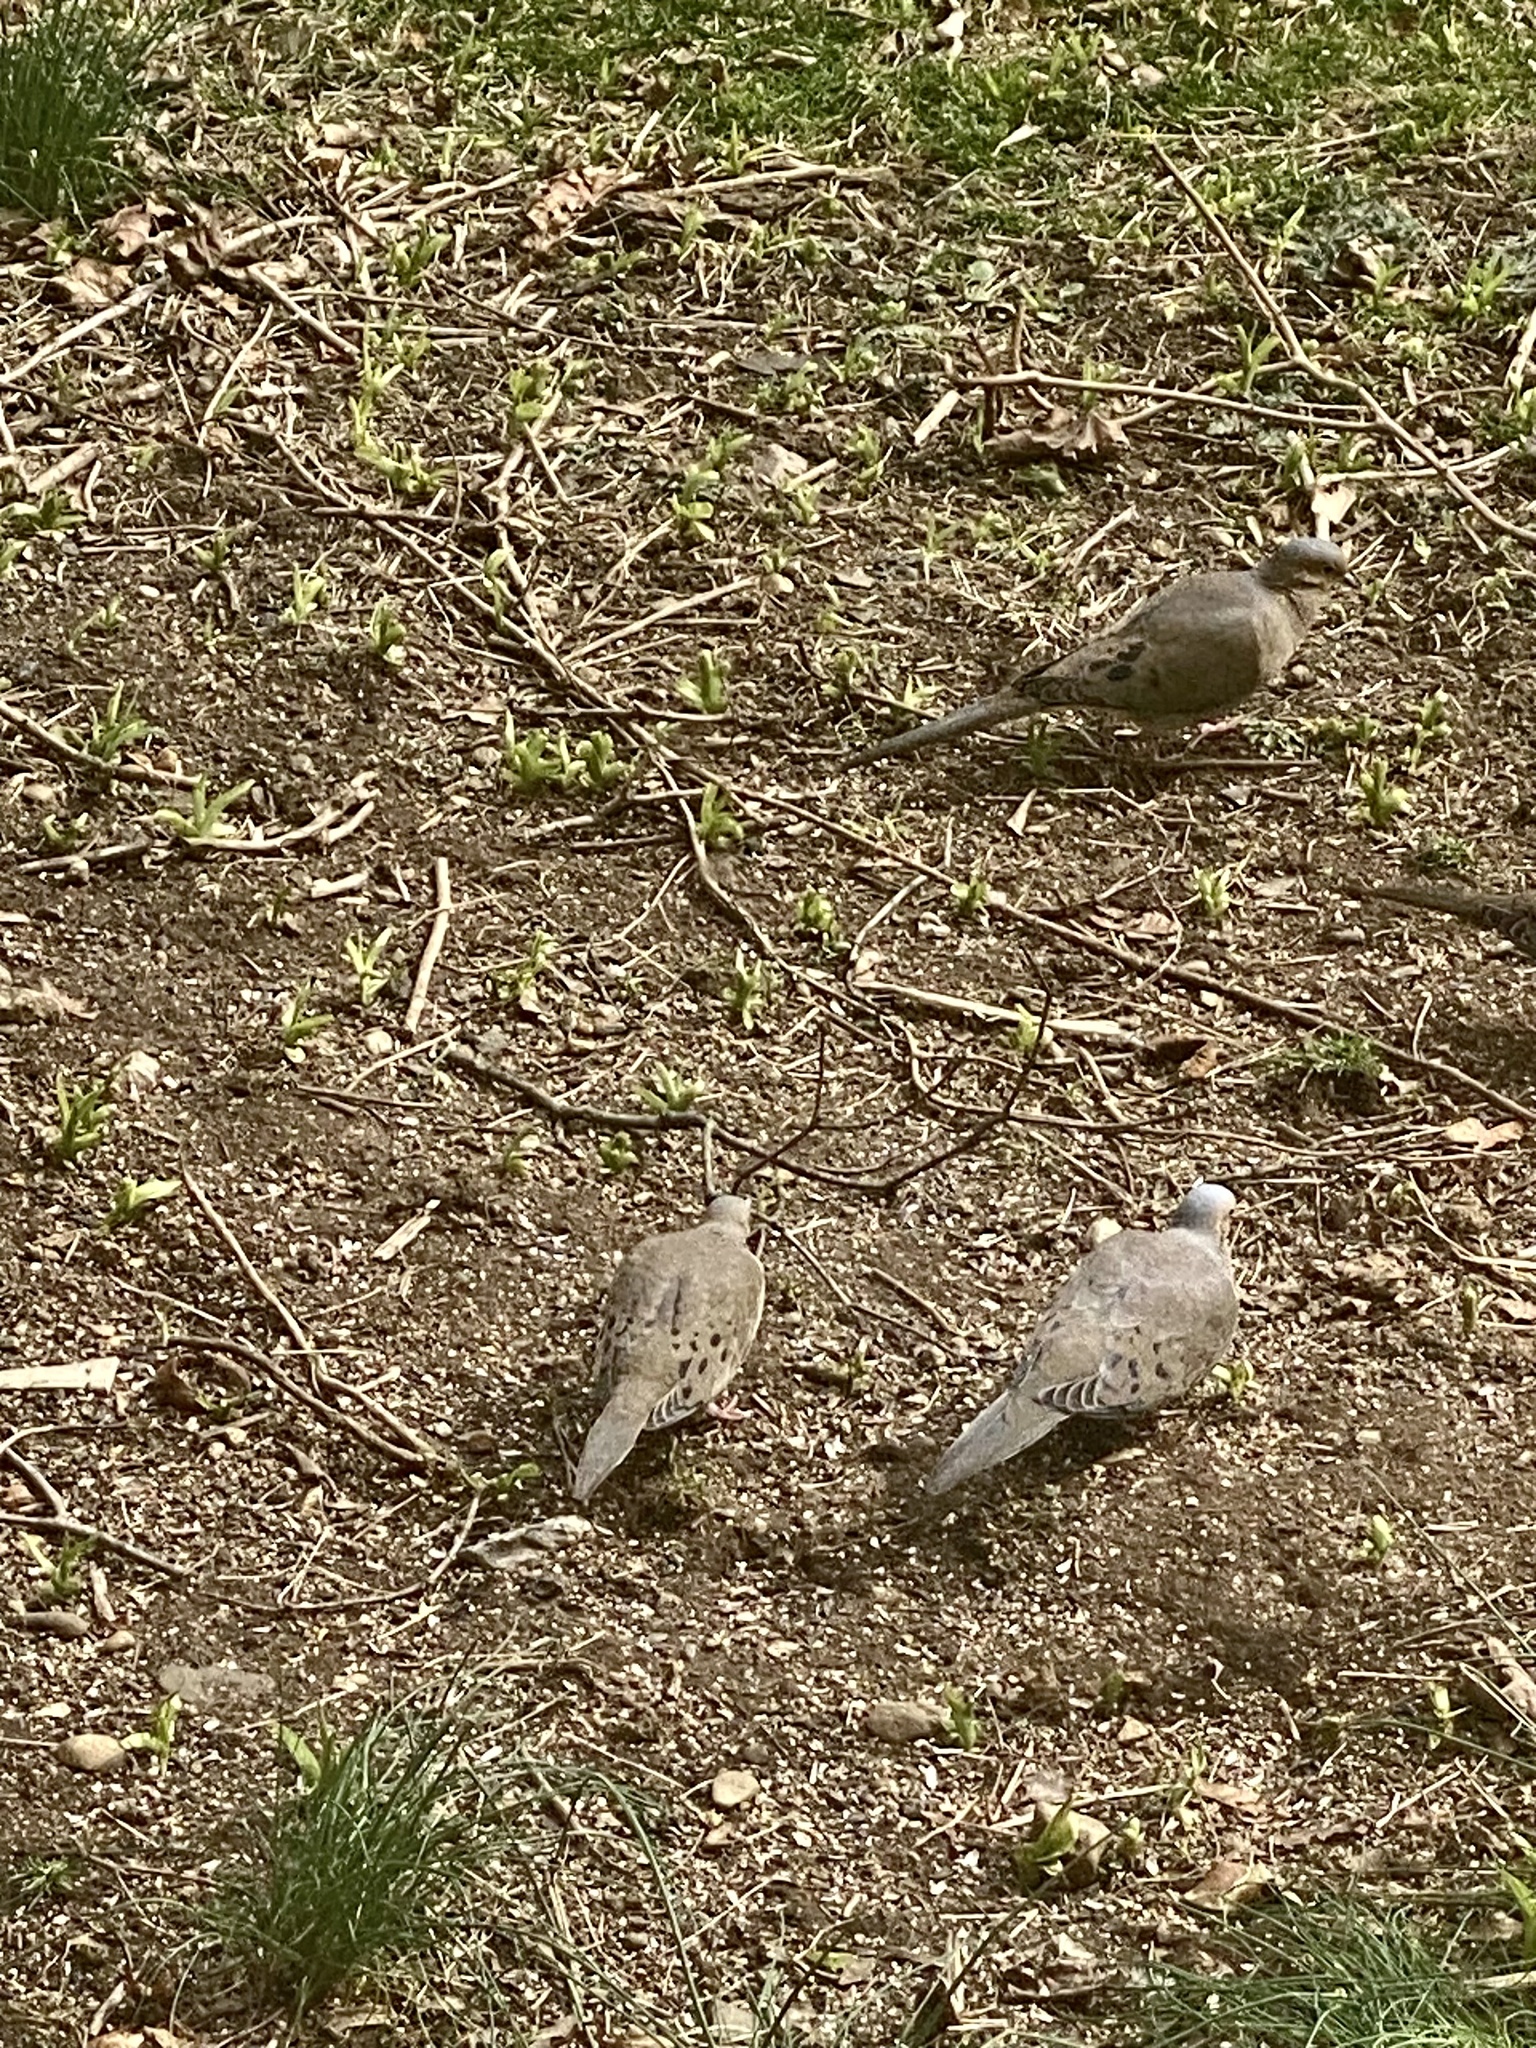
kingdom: Animalia
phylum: Chordata
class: Aves
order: Columbiformes
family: Columbidae
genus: Zenaida
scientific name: Zenaida macroura
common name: Mourning dove
